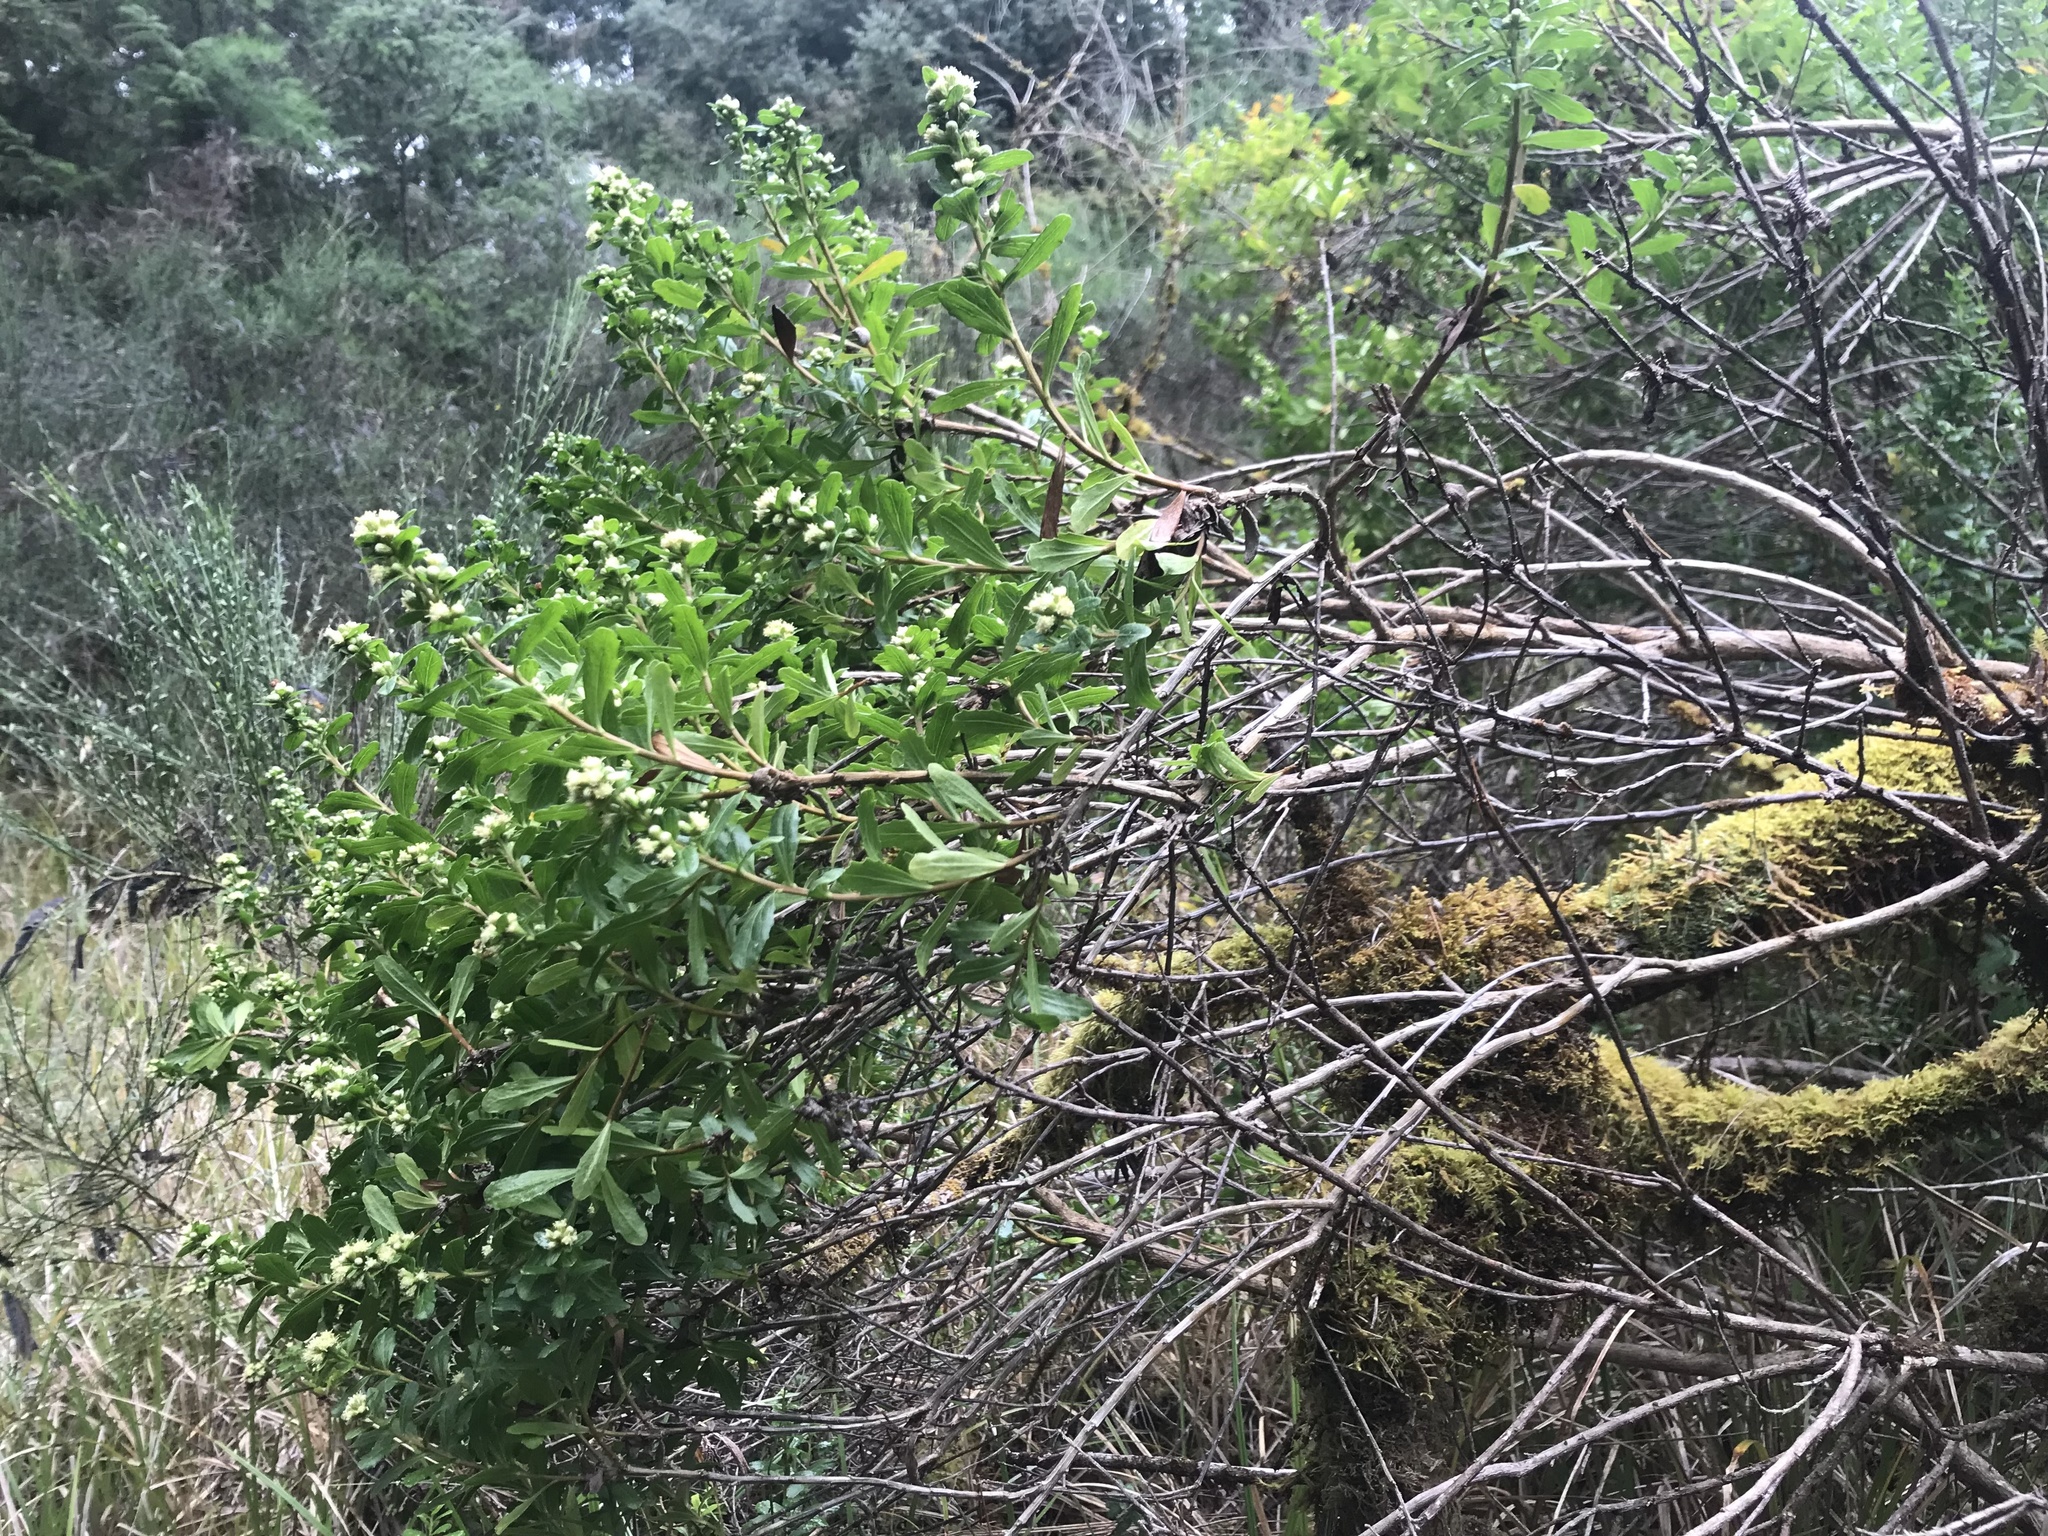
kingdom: Plantae
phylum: Tracheophyta
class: Magnoliopsida
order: Asterales
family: Asteraceae
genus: Baccharis
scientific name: Baccharis pilularis
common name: Coyotebrush
